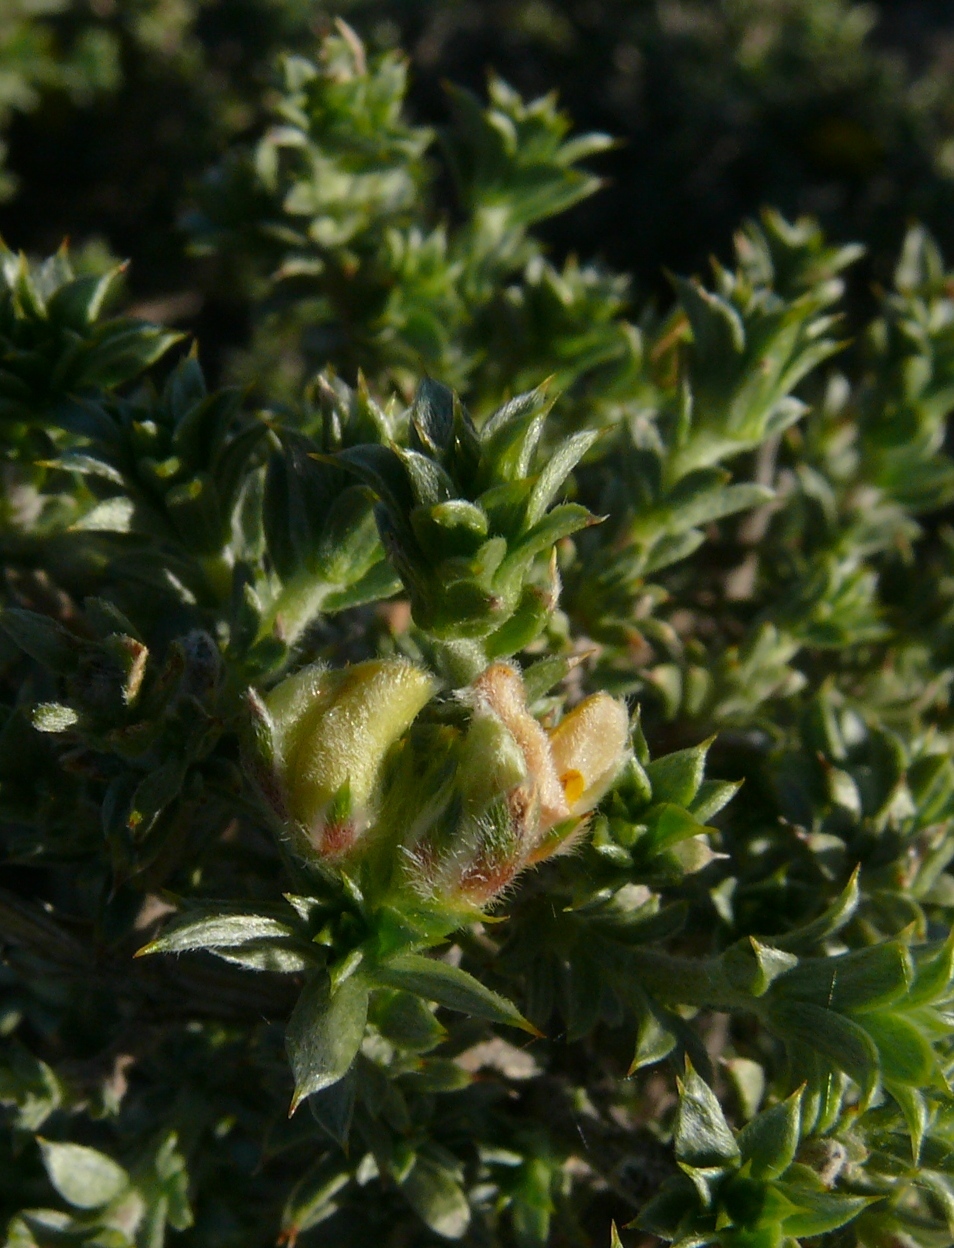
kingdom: Plantae
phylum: Tracheophyta
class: Magnoliopsida
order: Fabales
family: Fabaceae
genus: Aspalathus
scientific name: Aspalathus polycephala
